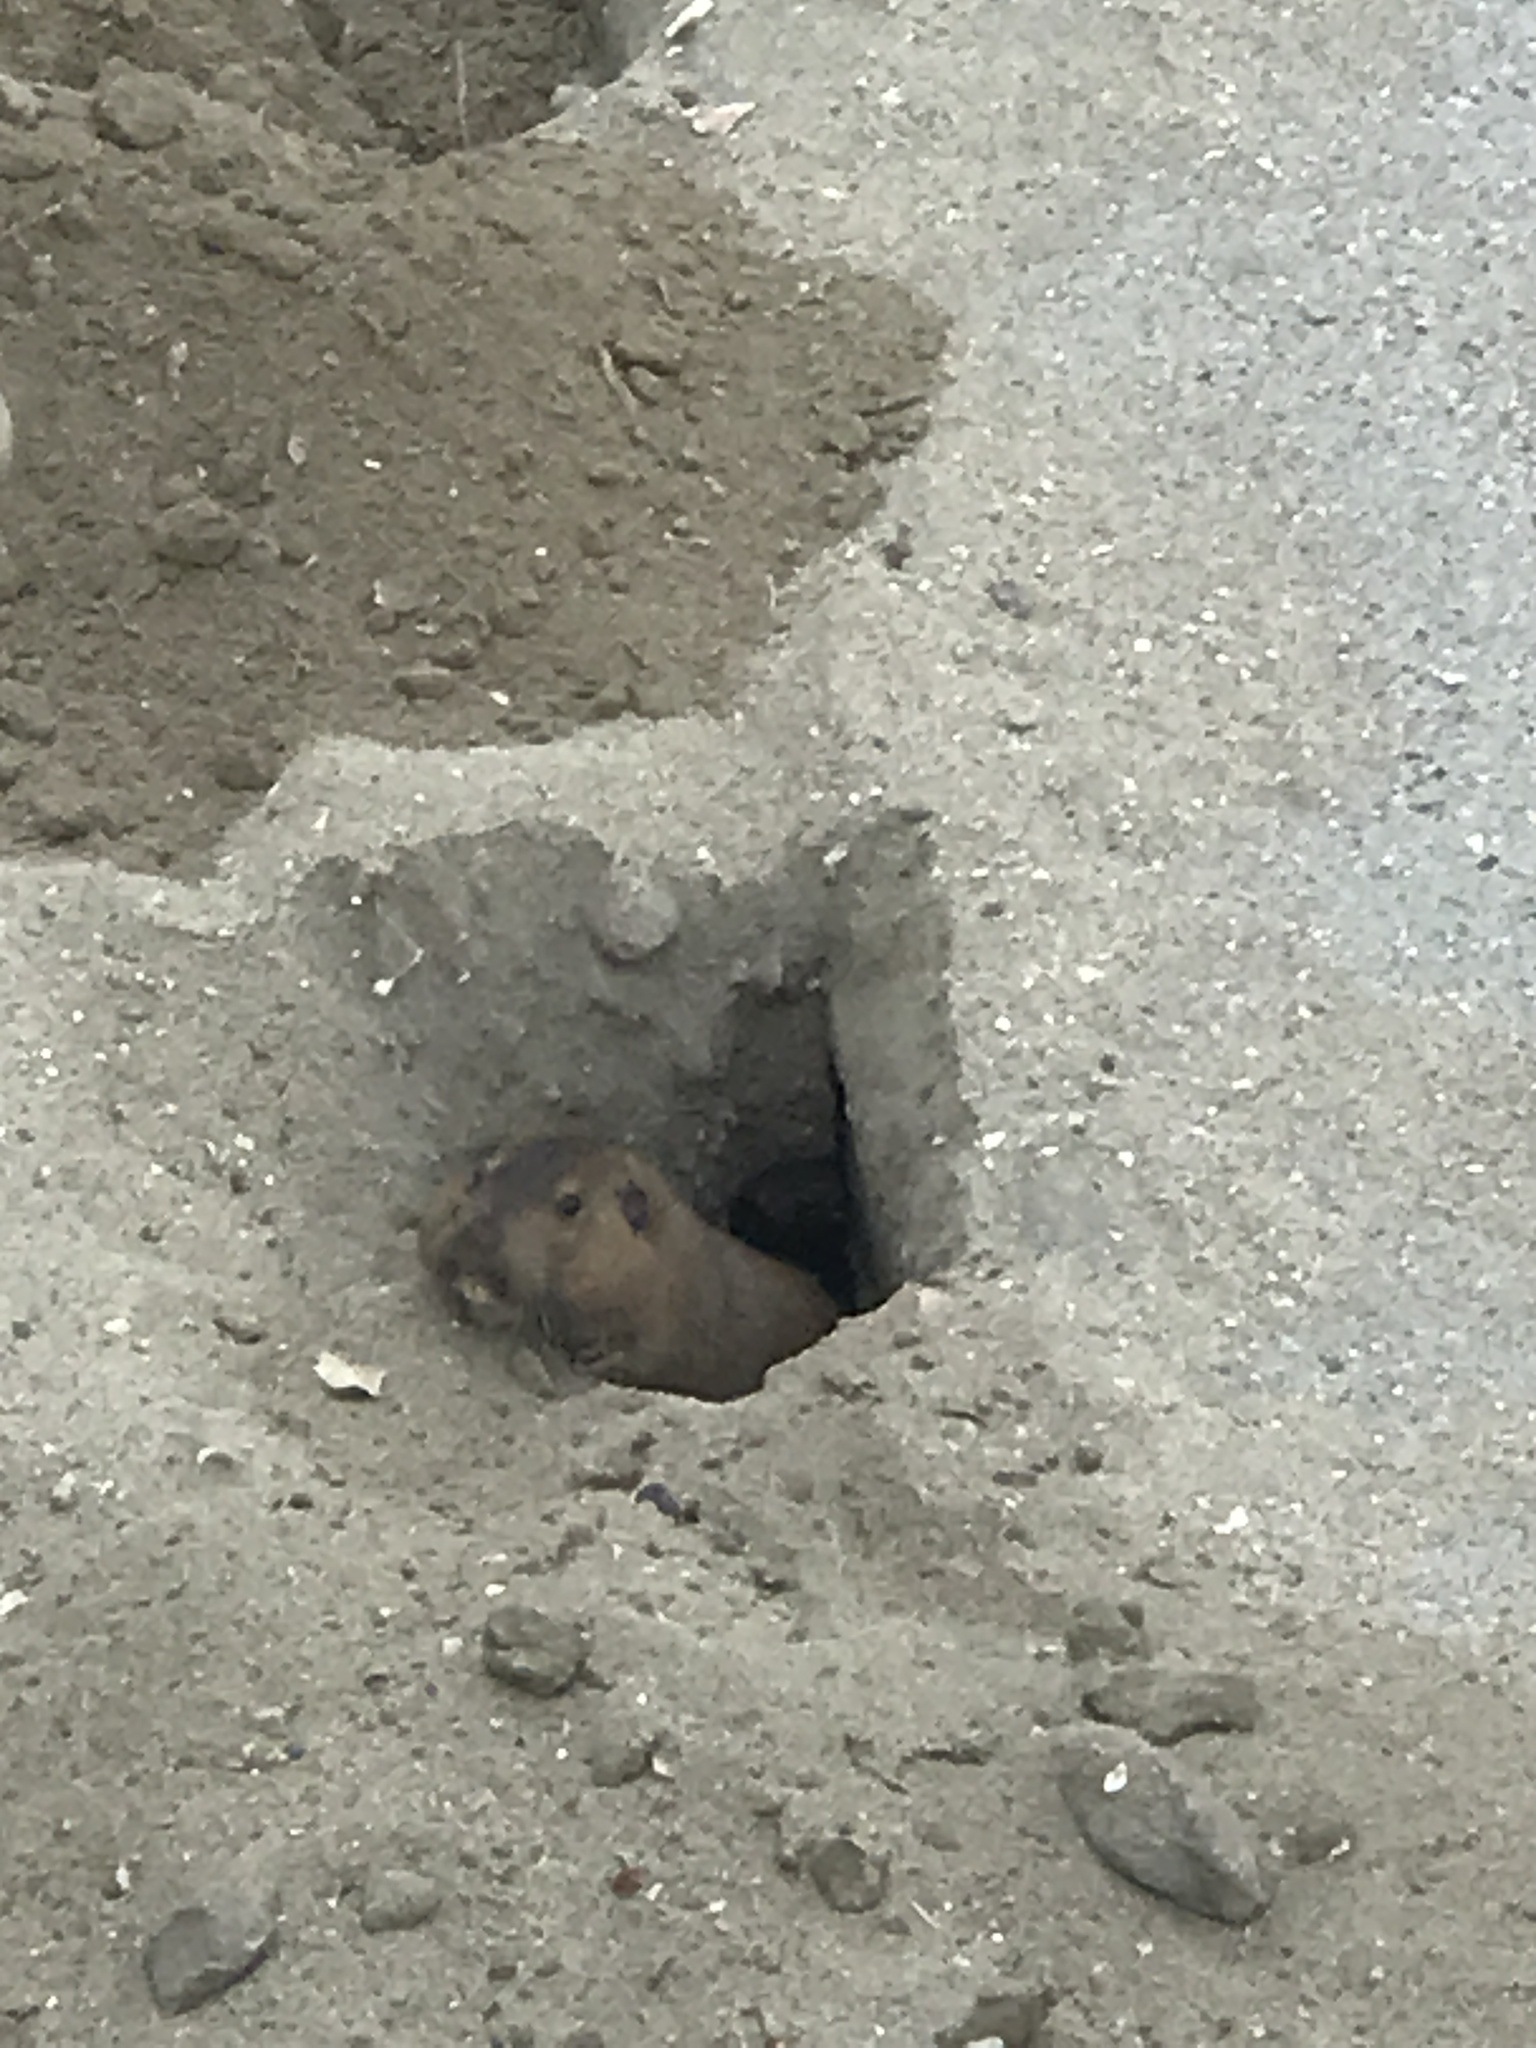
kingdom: Animalia
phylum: Chordata
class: Mammalia
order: Rodentia
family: Geomyidae
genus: Thomomys
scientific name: Thomomys bottae
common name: Botta's pocket gopher
